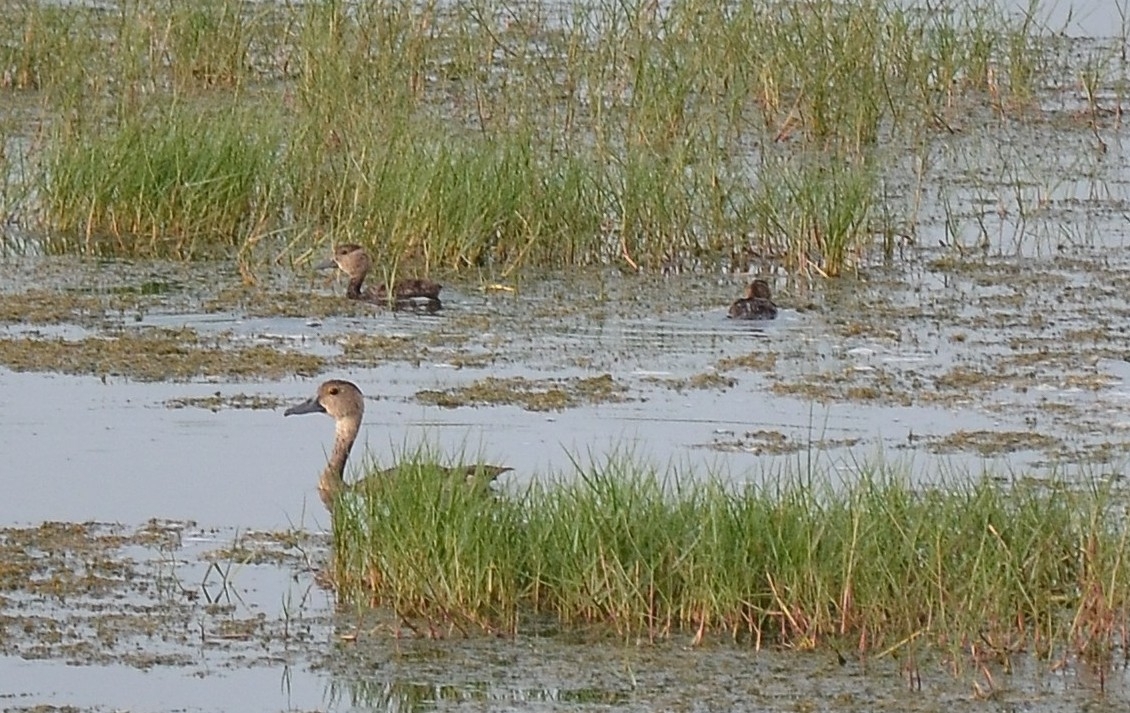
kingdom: Animalia
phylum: Chordata
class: Aves
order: Anseriformes
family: Anatidae
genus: Dendrocygna
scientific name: Dendrocygna javanica
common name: Lesser whistling-duck
